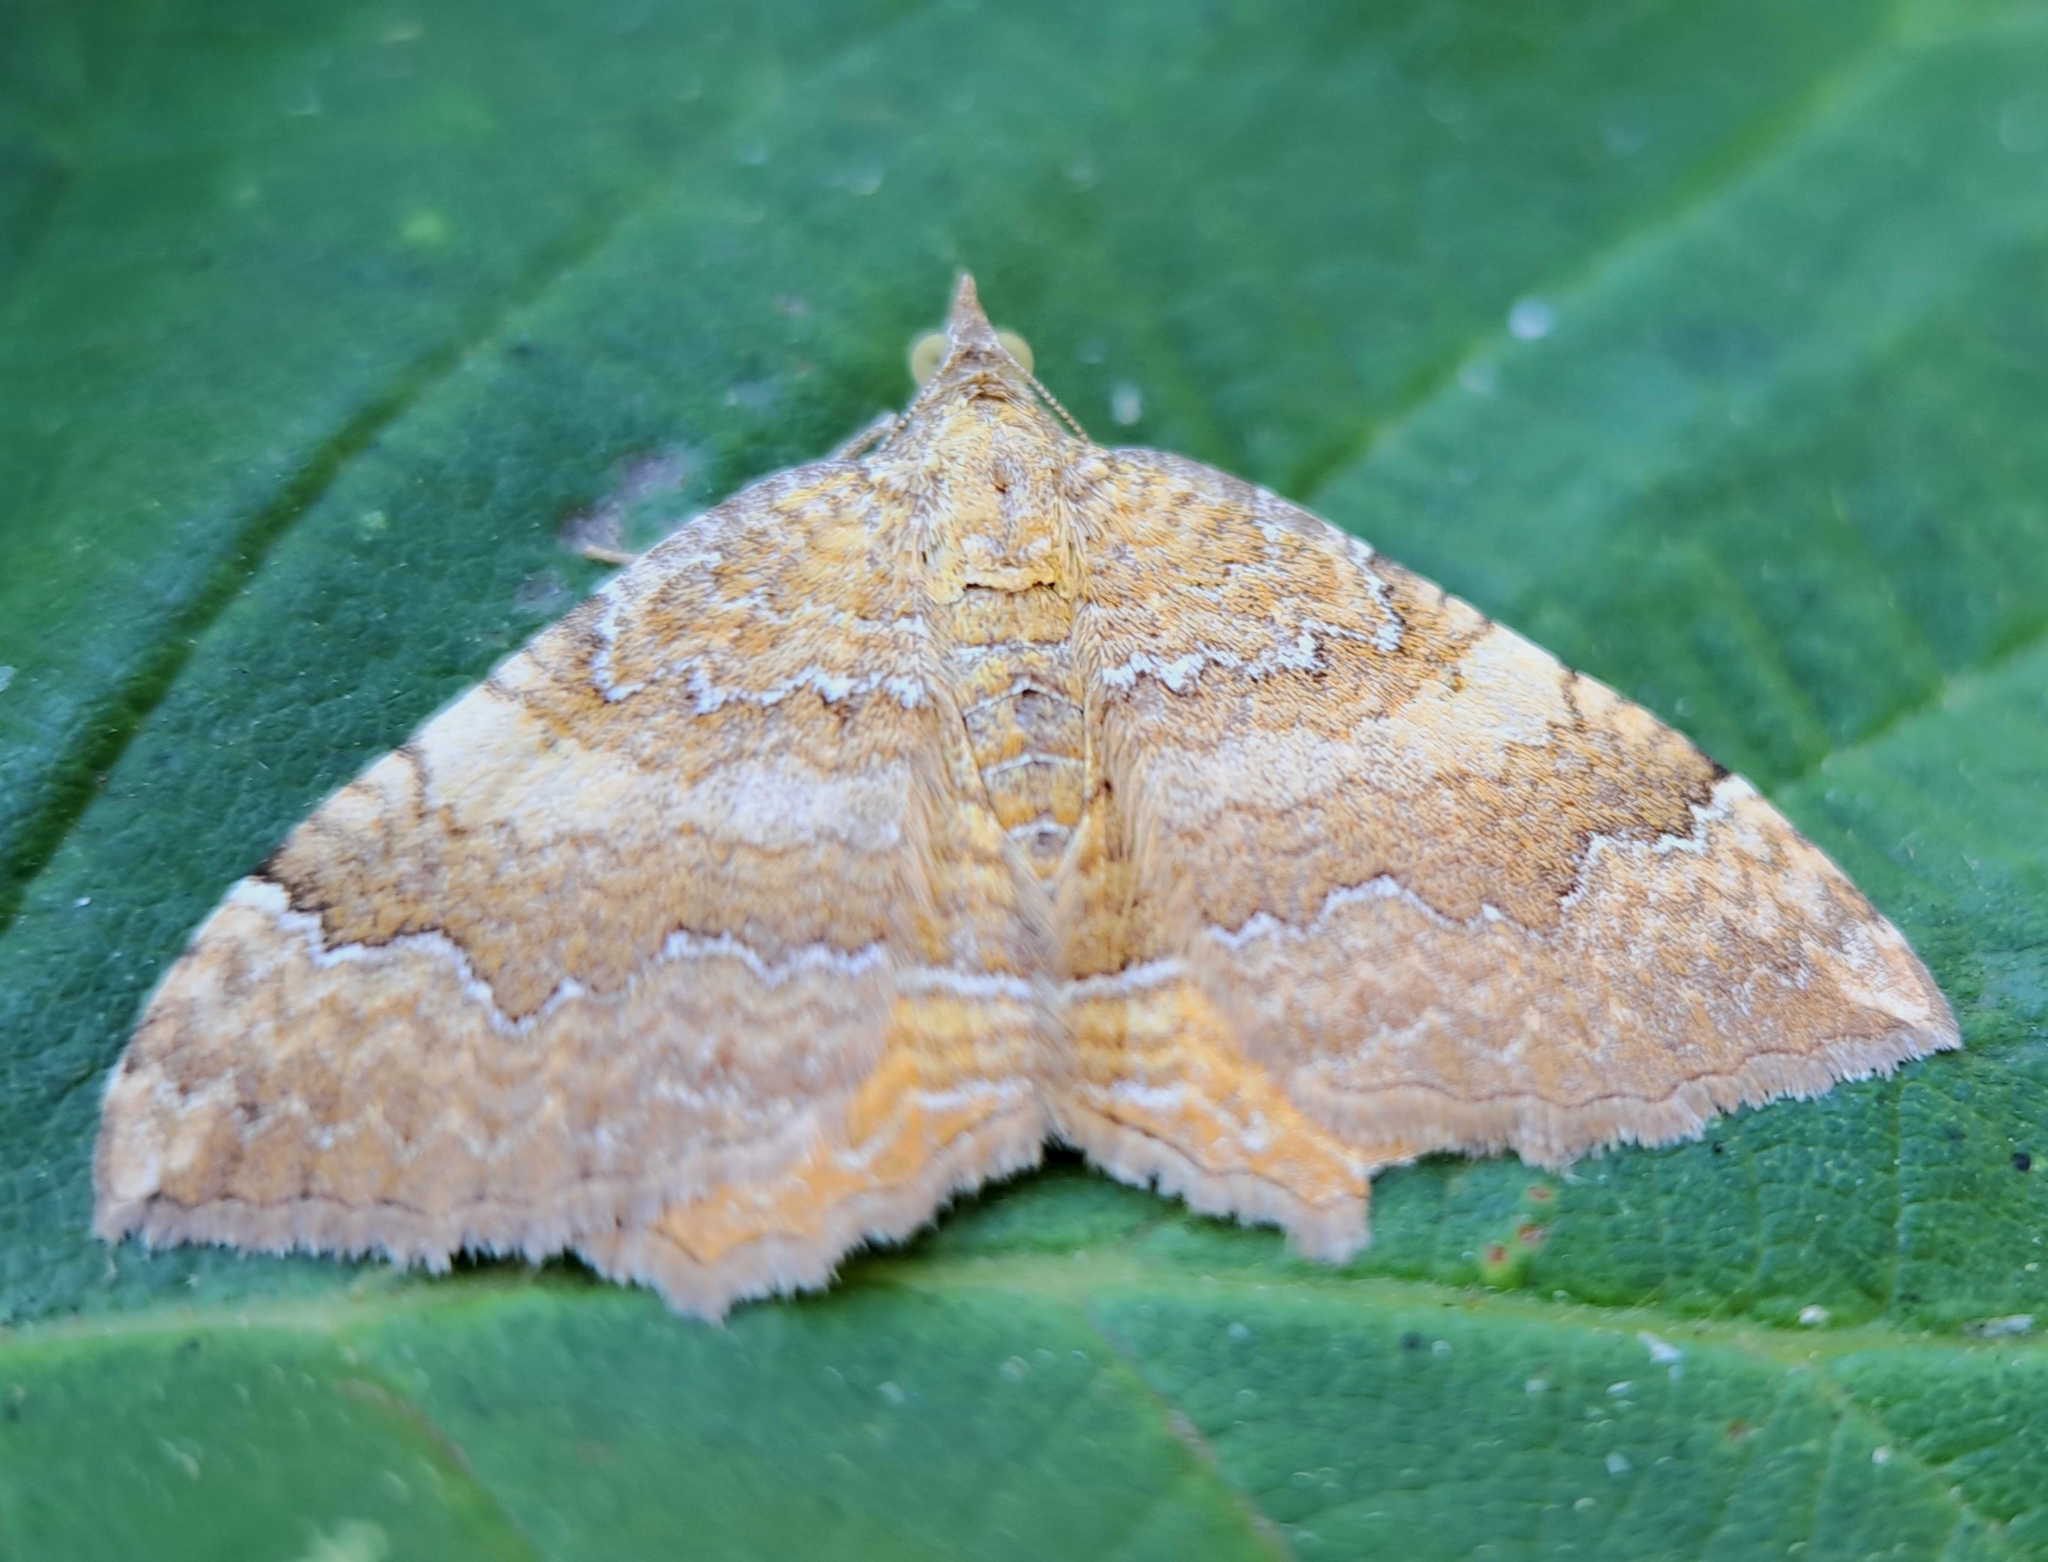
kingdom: Animalia
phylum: Arthropoda
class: Insecta
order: Lepidoptera
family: Geometridae
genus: Camptogramma
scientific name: Camptogramma bilineata
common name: Yellow shell
